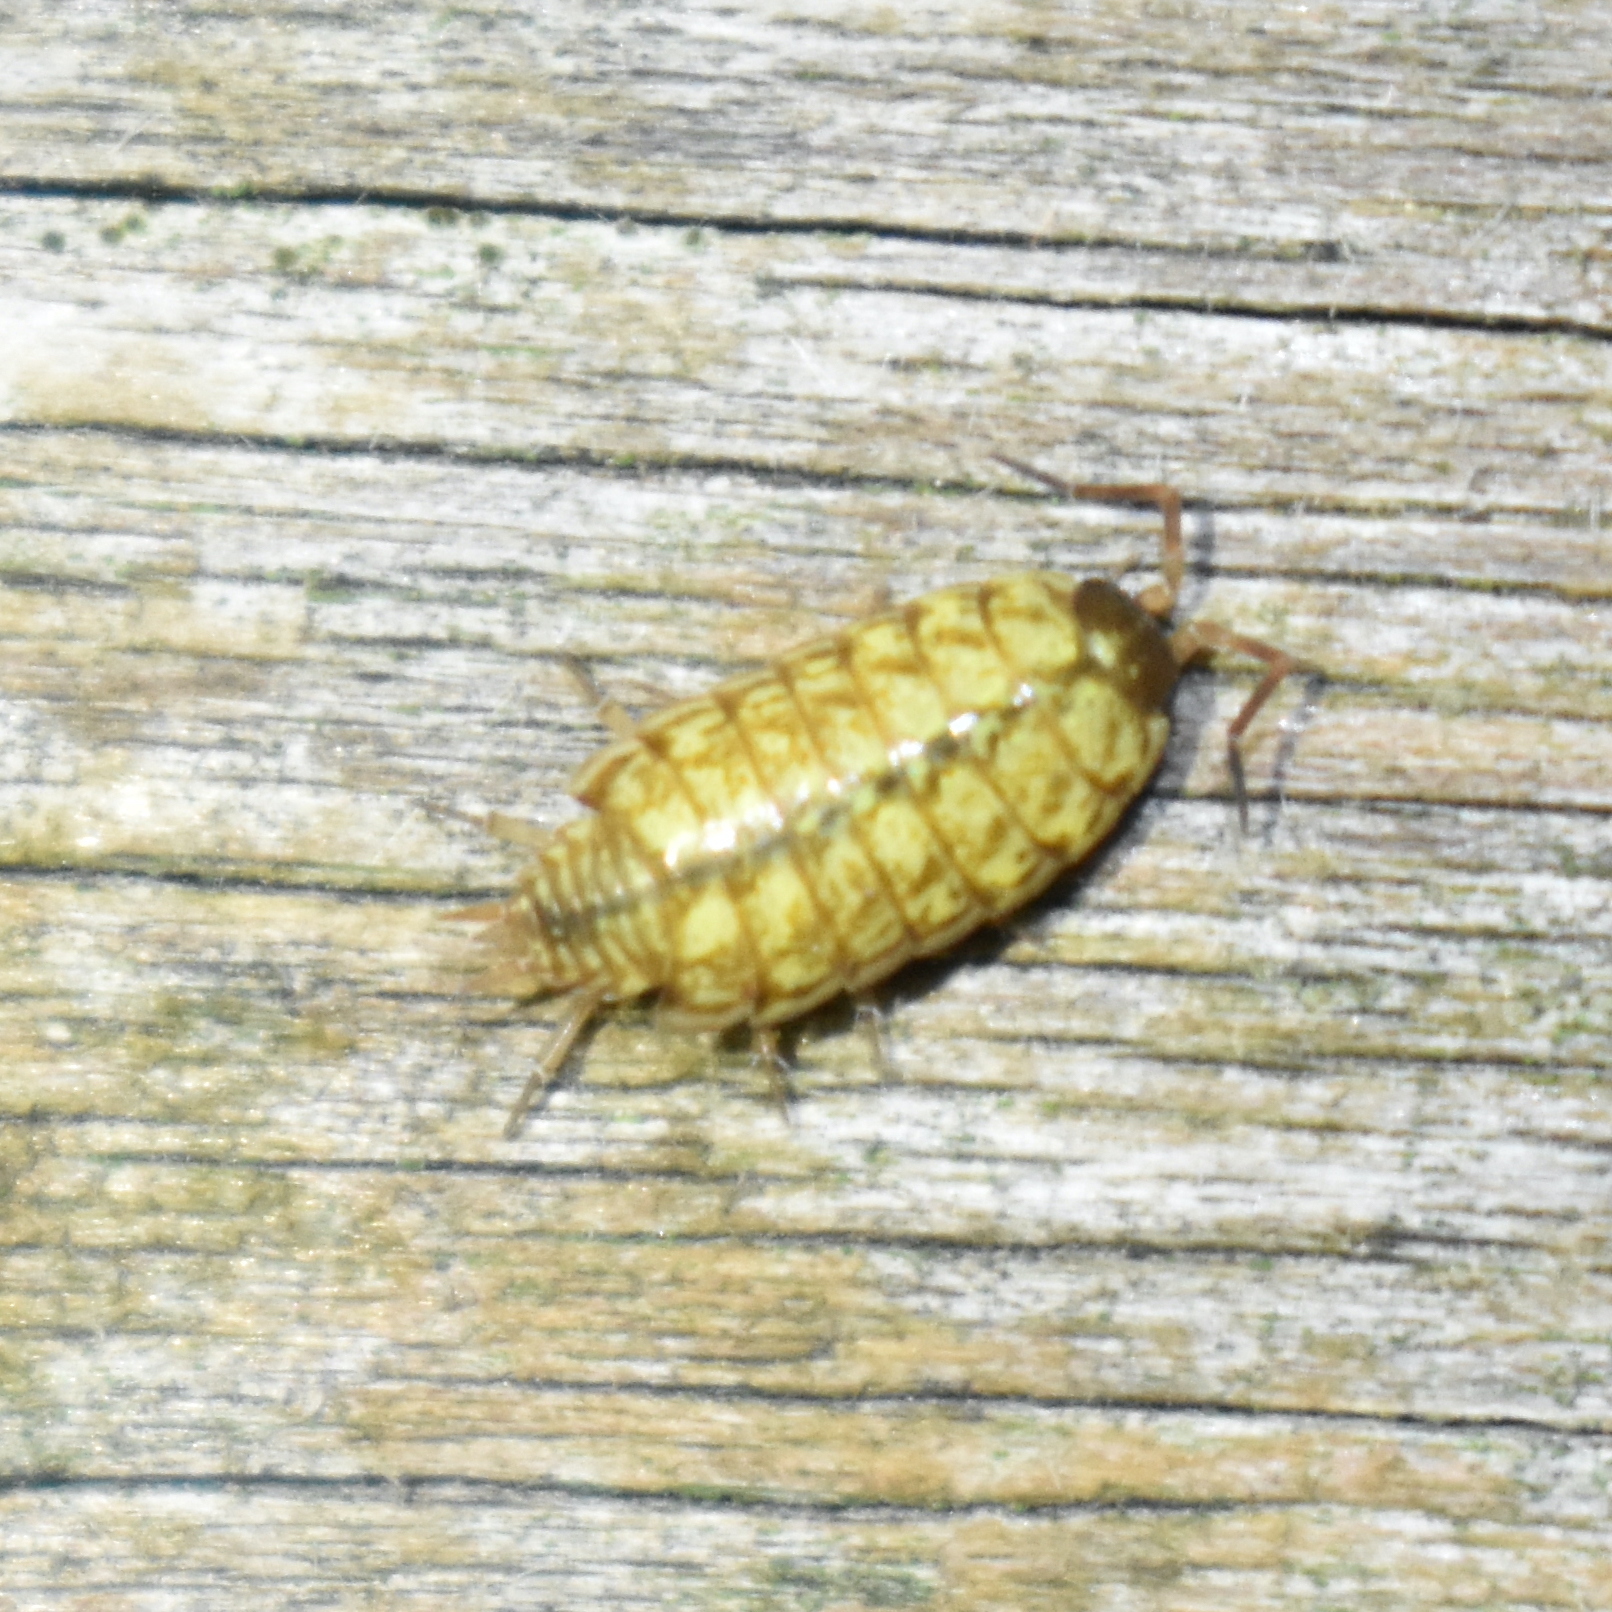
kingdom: Animalia
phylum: Arthropoda
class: Malacostraca
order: Isopoda
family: Philosciidae
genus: Philoscia
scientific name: Philoscia muscorum
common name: Common striped woodlouse
